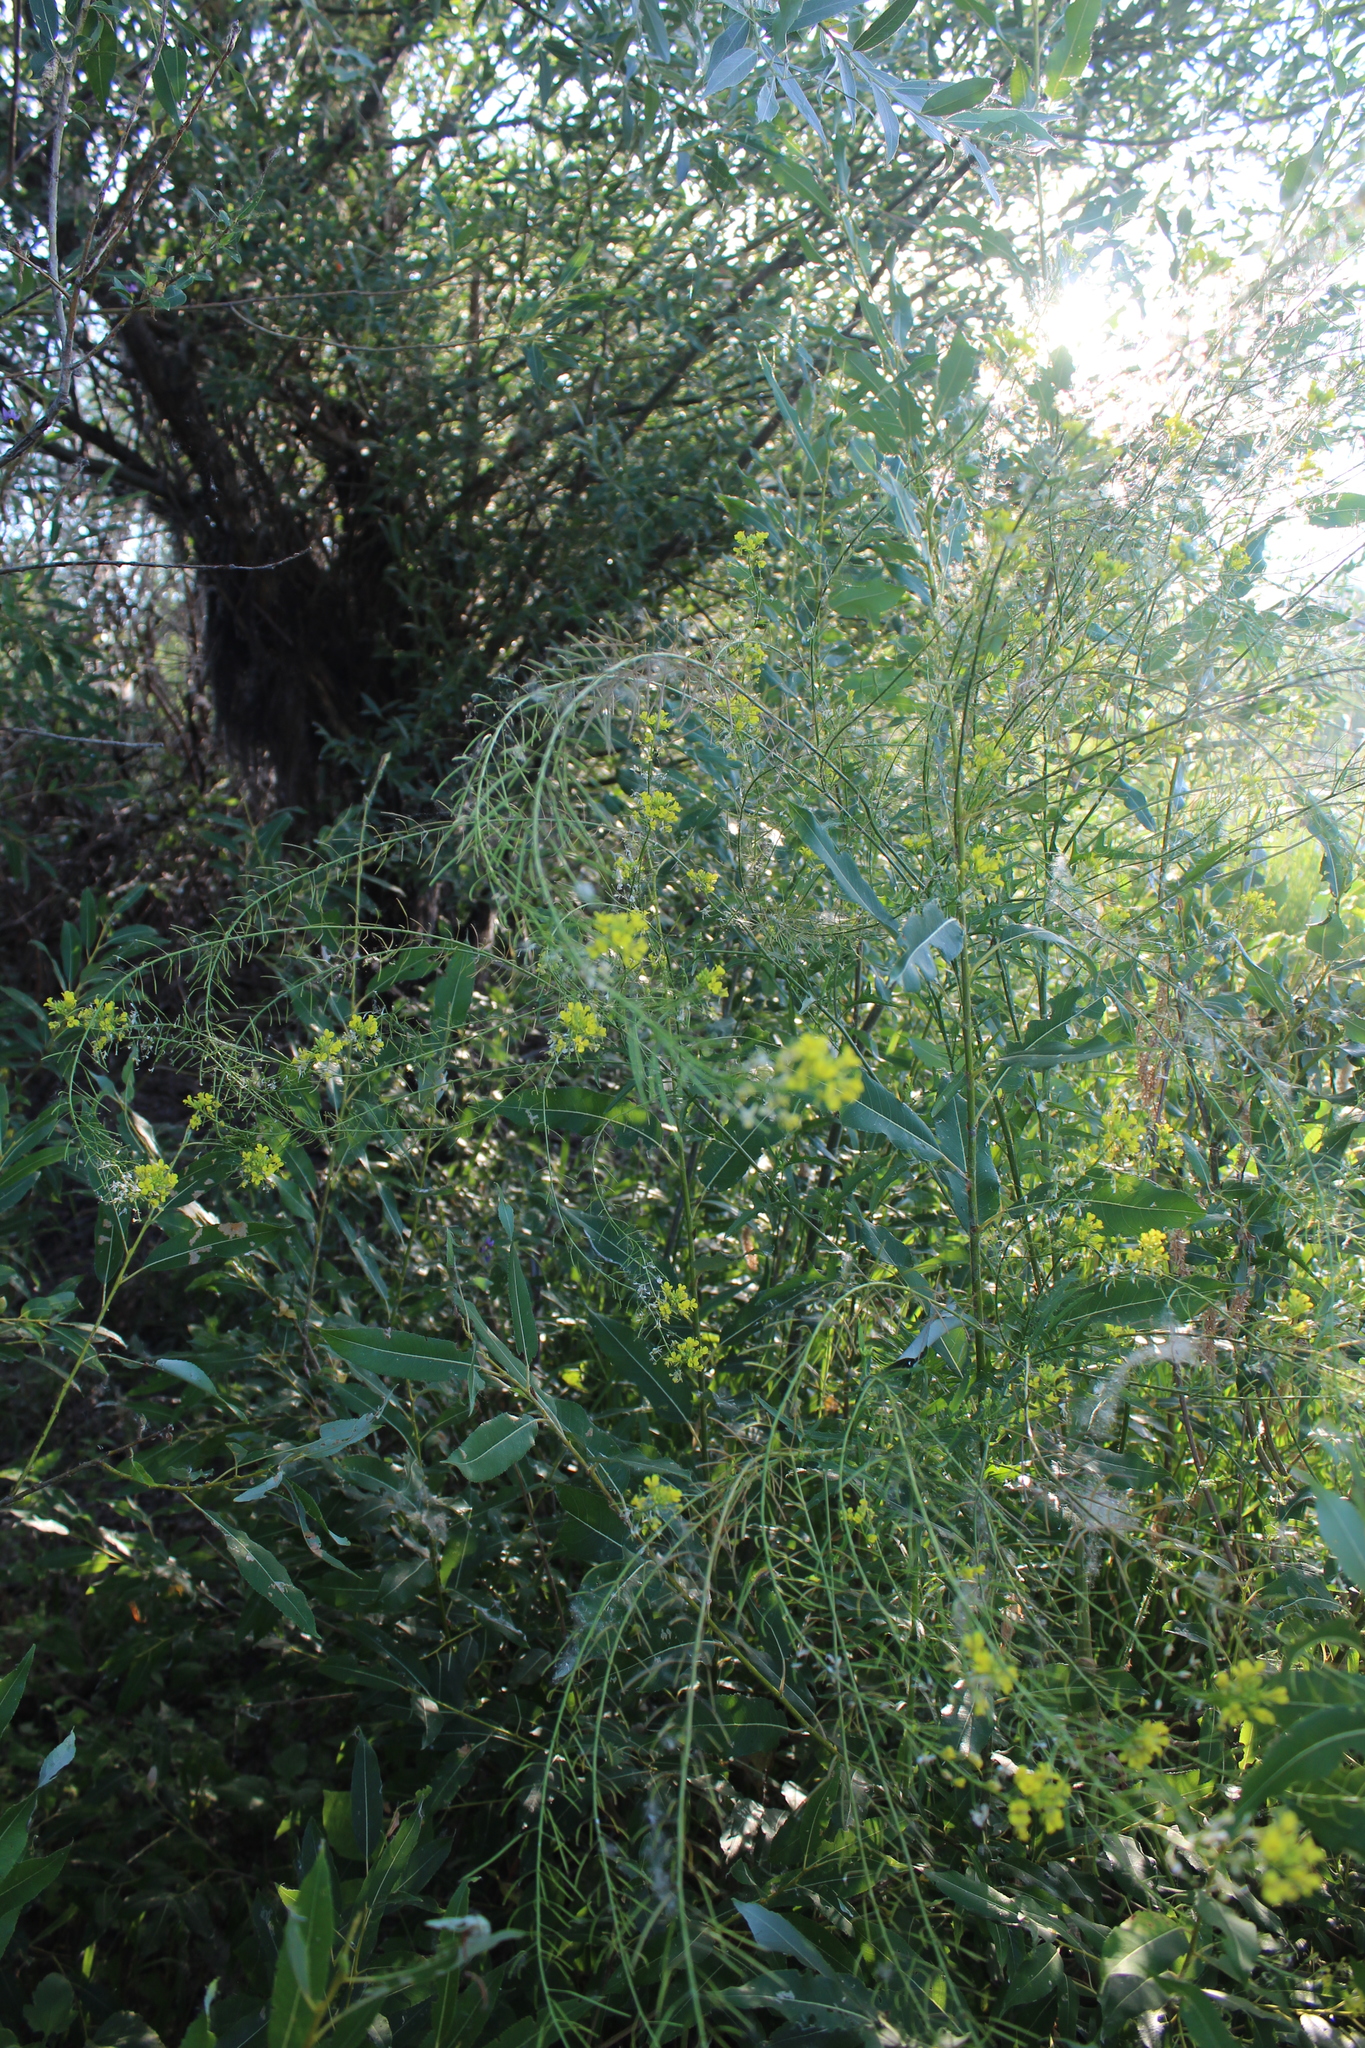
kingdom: Plantae
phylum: Tracheophyta
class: Magnoliopsida
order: Brassicales
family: Brassicaceae
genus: Sisymbrium
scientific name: Sisymbrium loeselii
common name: False london-rocket
